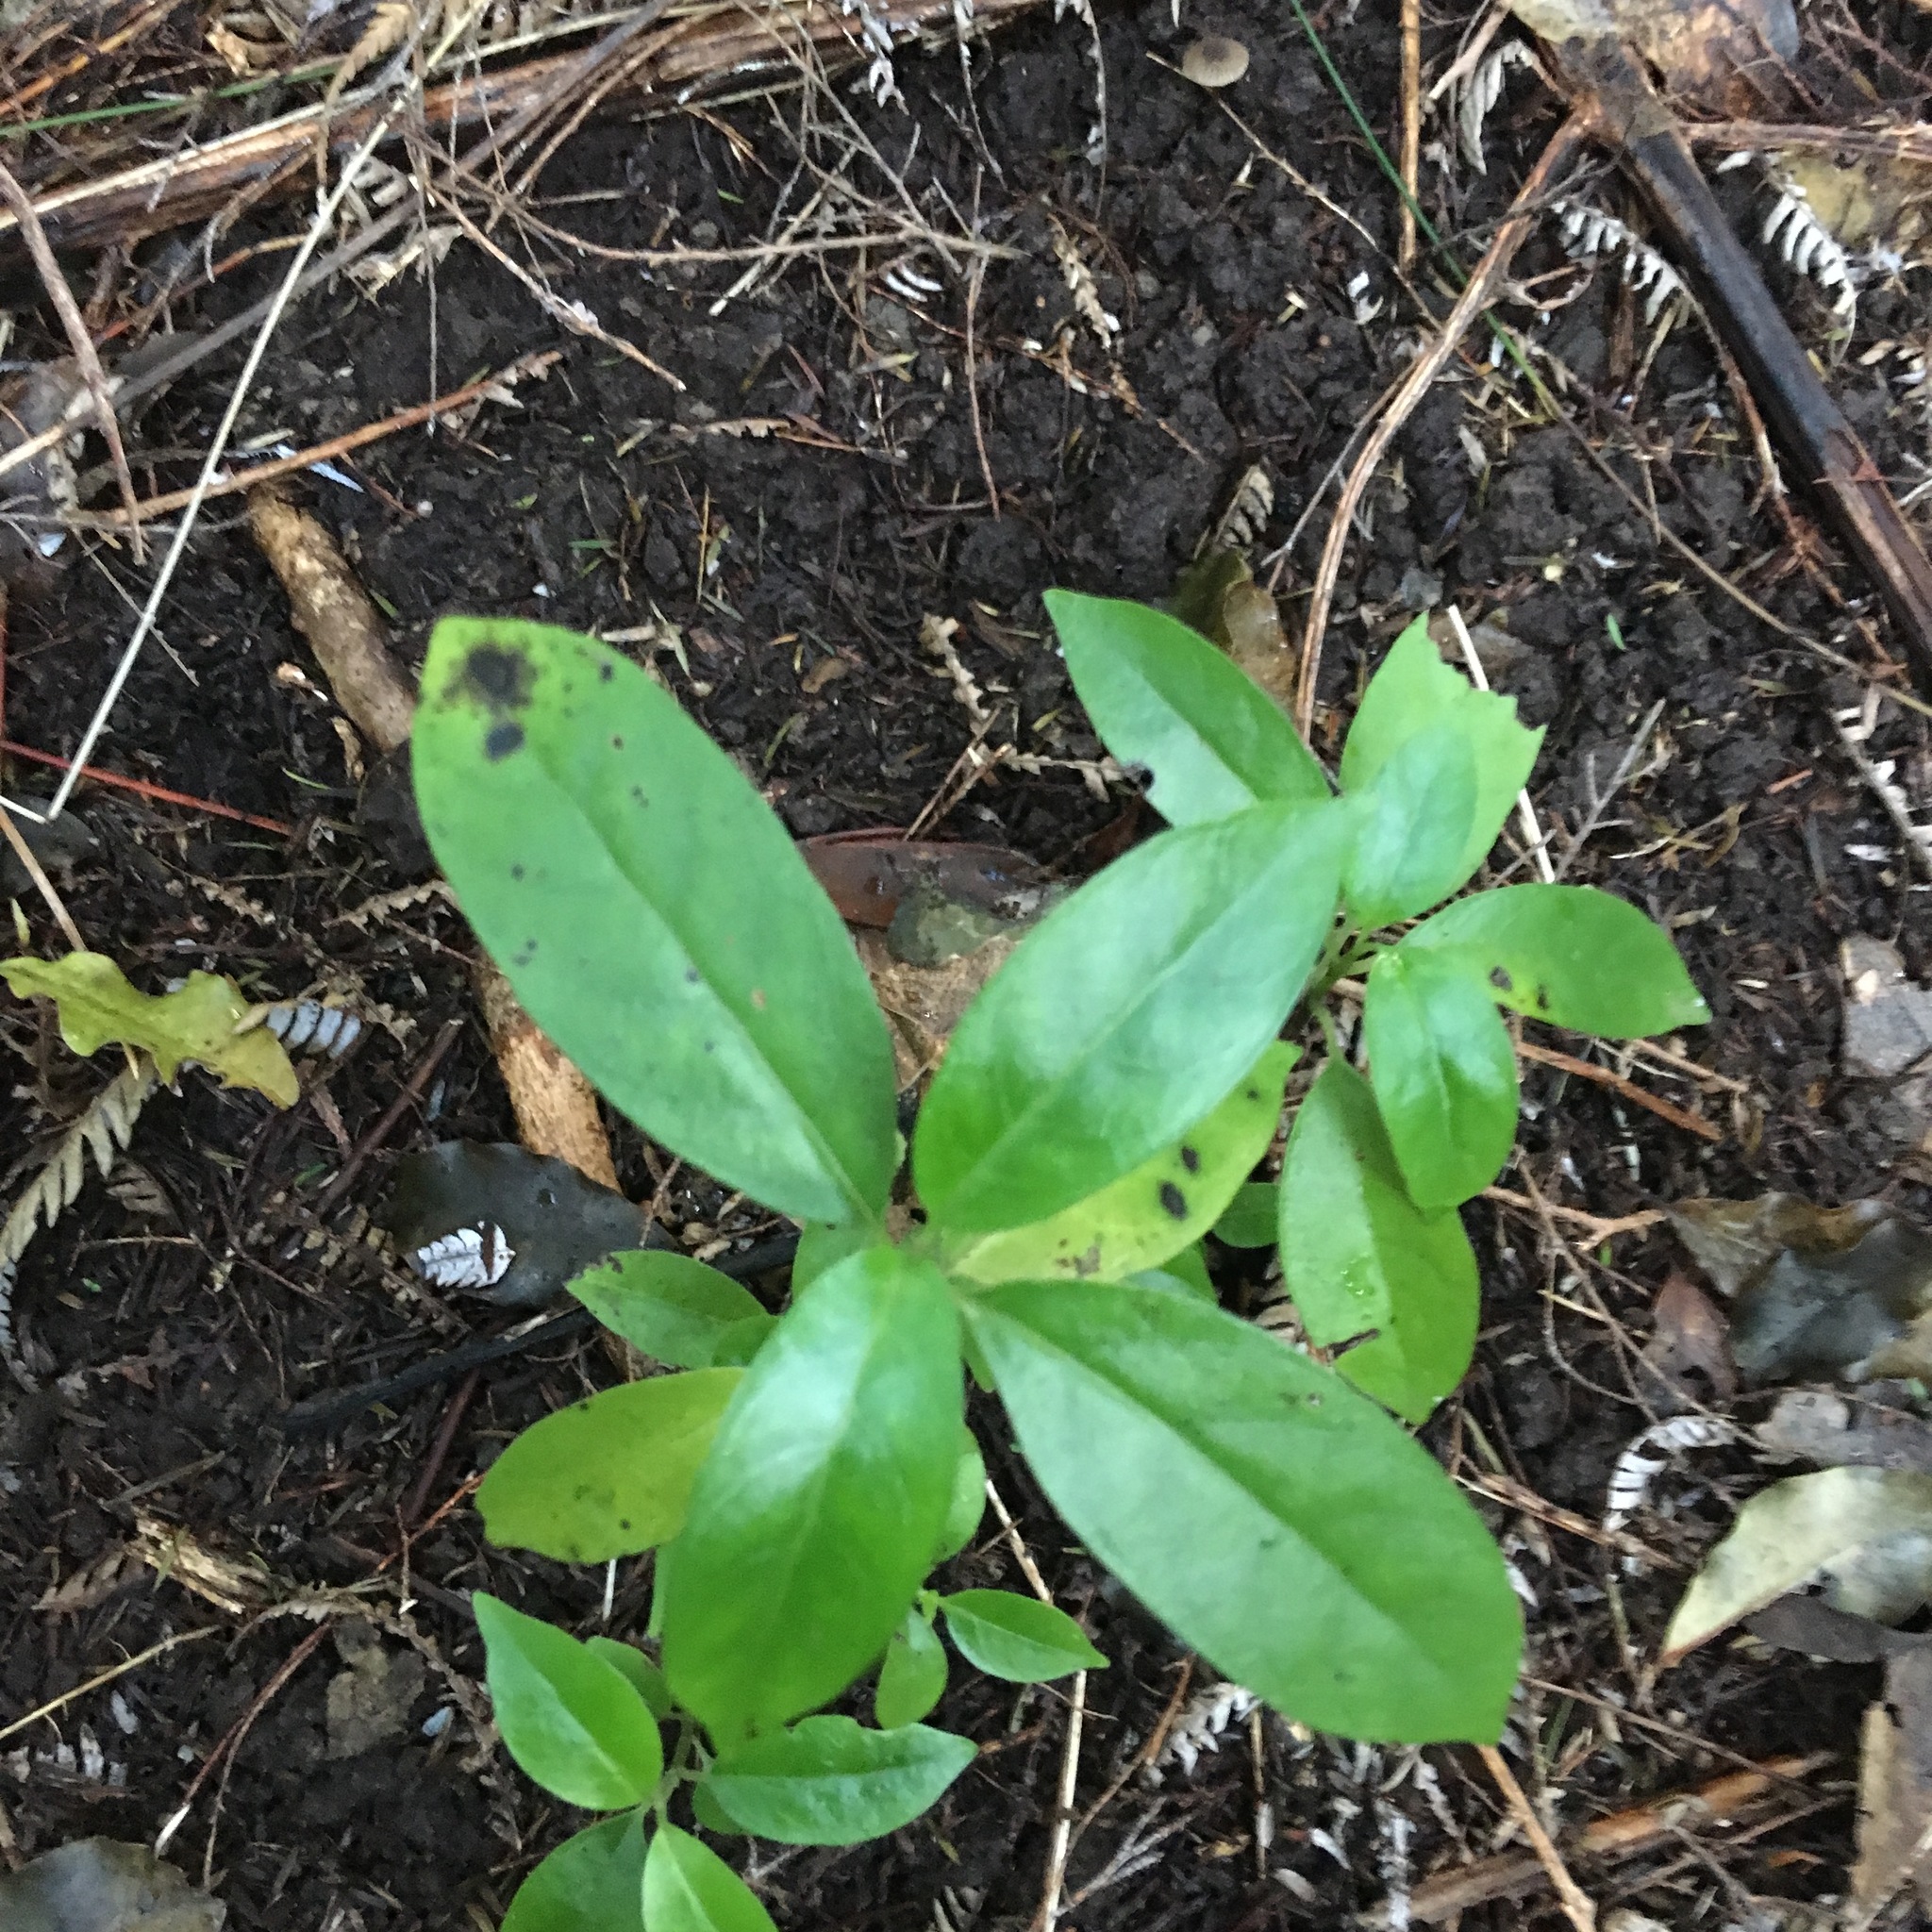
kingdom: Plantae
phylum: Tracheophyta
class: Magnoliopsida
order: Gentianales
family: Loganiaceae
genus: Geniostoma
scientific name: Geniostoma ligustrifolium
